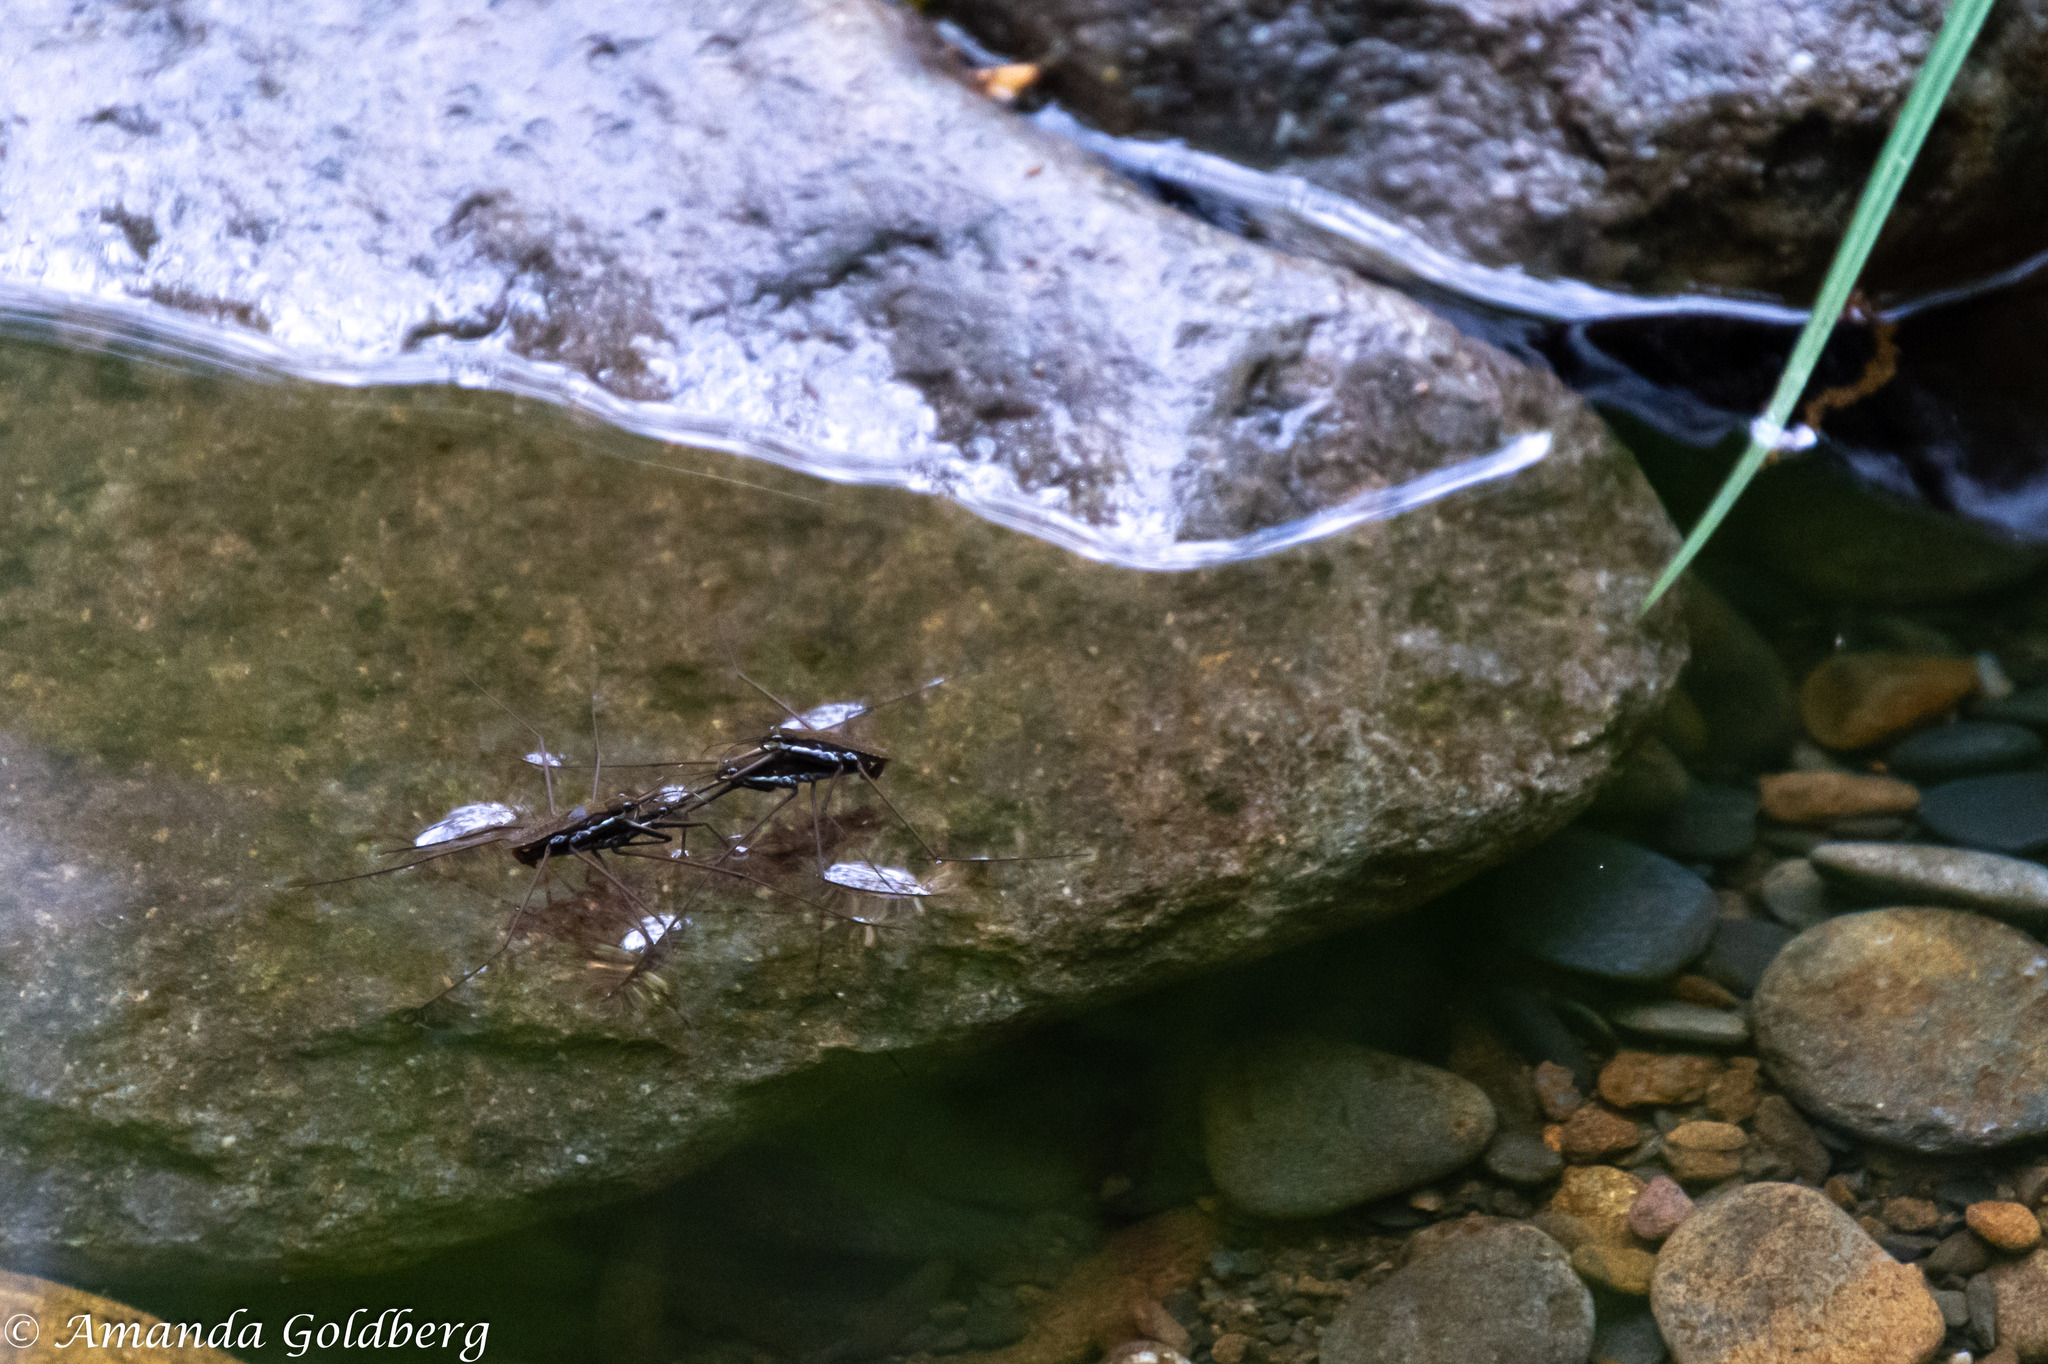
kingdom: Animalia
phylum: Arthropoda
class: Insecta
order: Hemiptera
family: Gerridae
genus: Aquarius
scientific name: Aquarius
